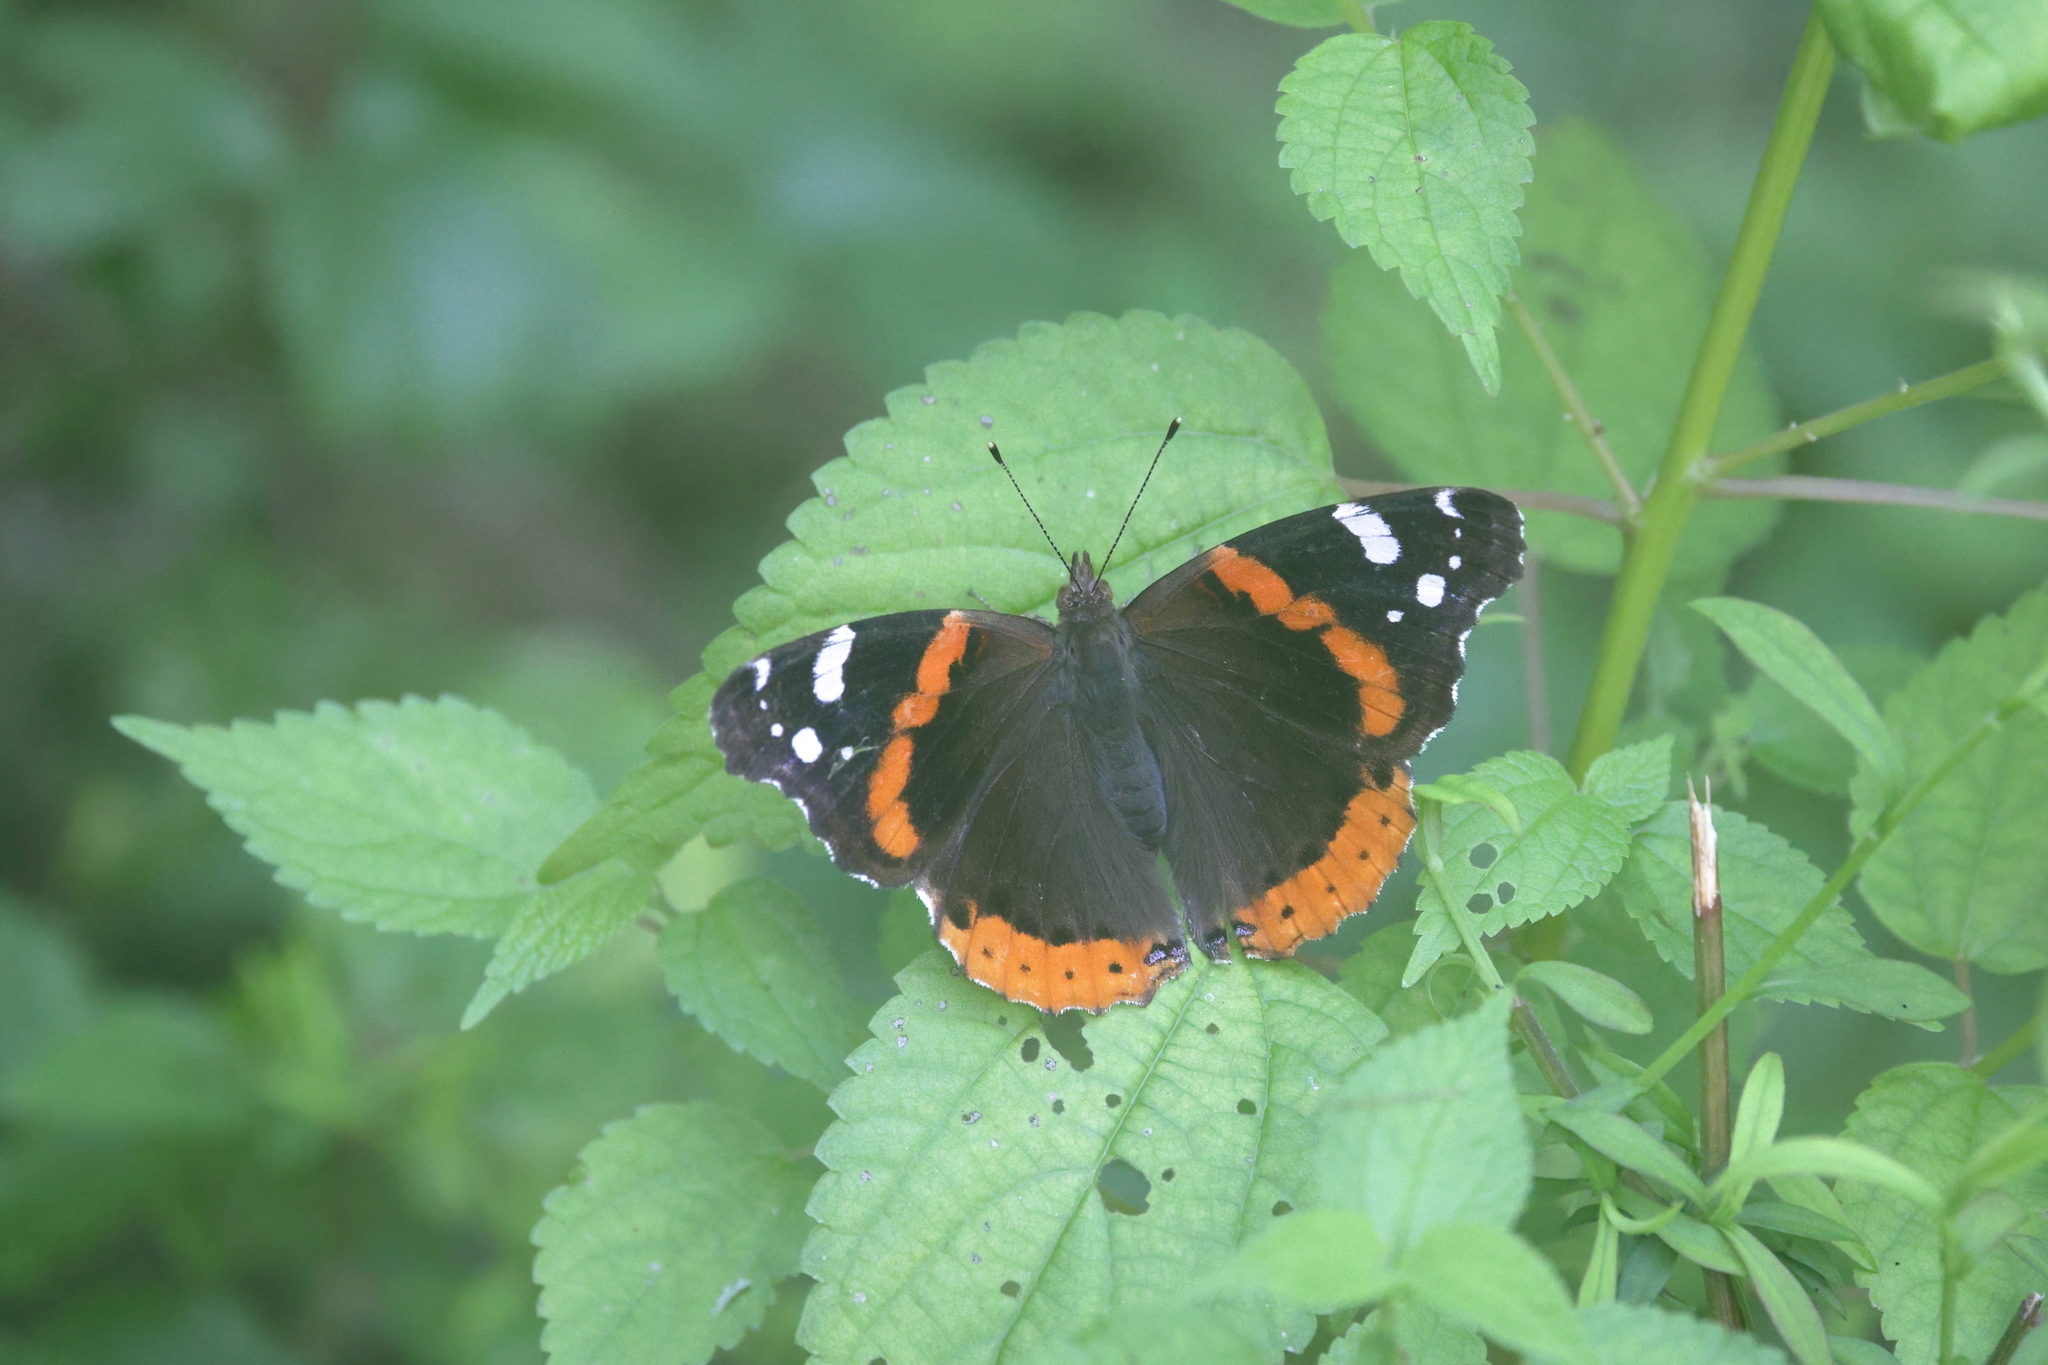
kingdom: Animalia
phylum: Arthropoda
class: Insecta
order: Lepidoptera
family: Nymphalidae
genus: Vanessa
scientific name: Vanessa atalanta
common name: Red admiral
